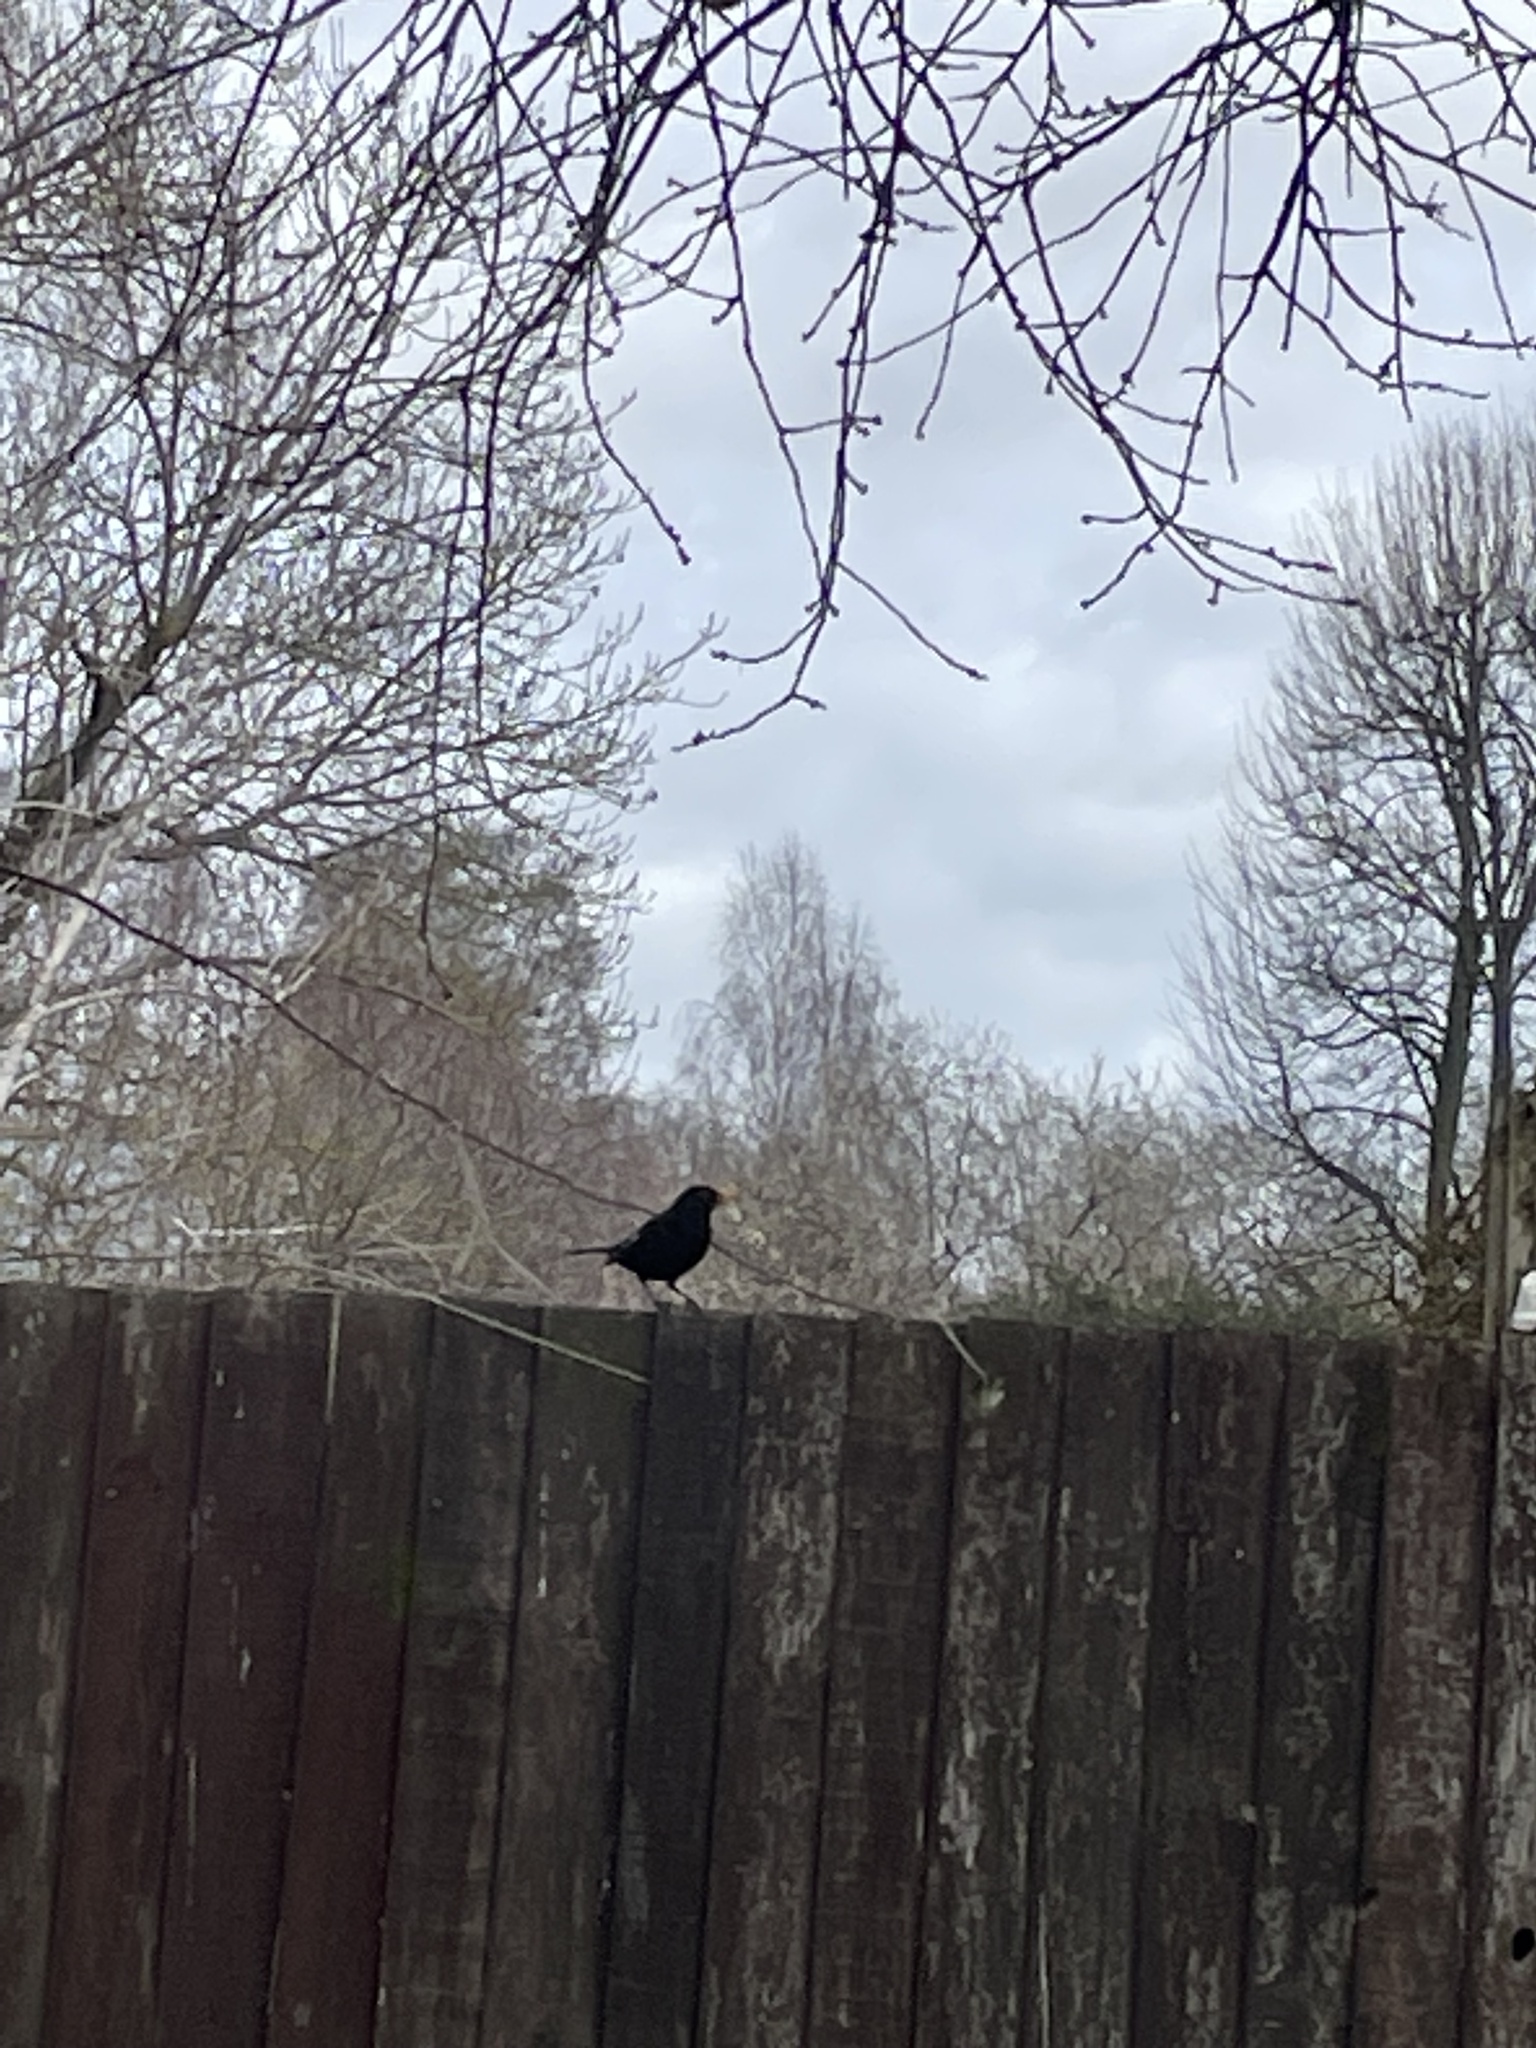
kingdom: Animalia
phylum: Chordata
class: Aves
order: Passeriformes
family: Turdidae
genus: Turdus
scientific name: Turdus merula
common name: Common blackbird
